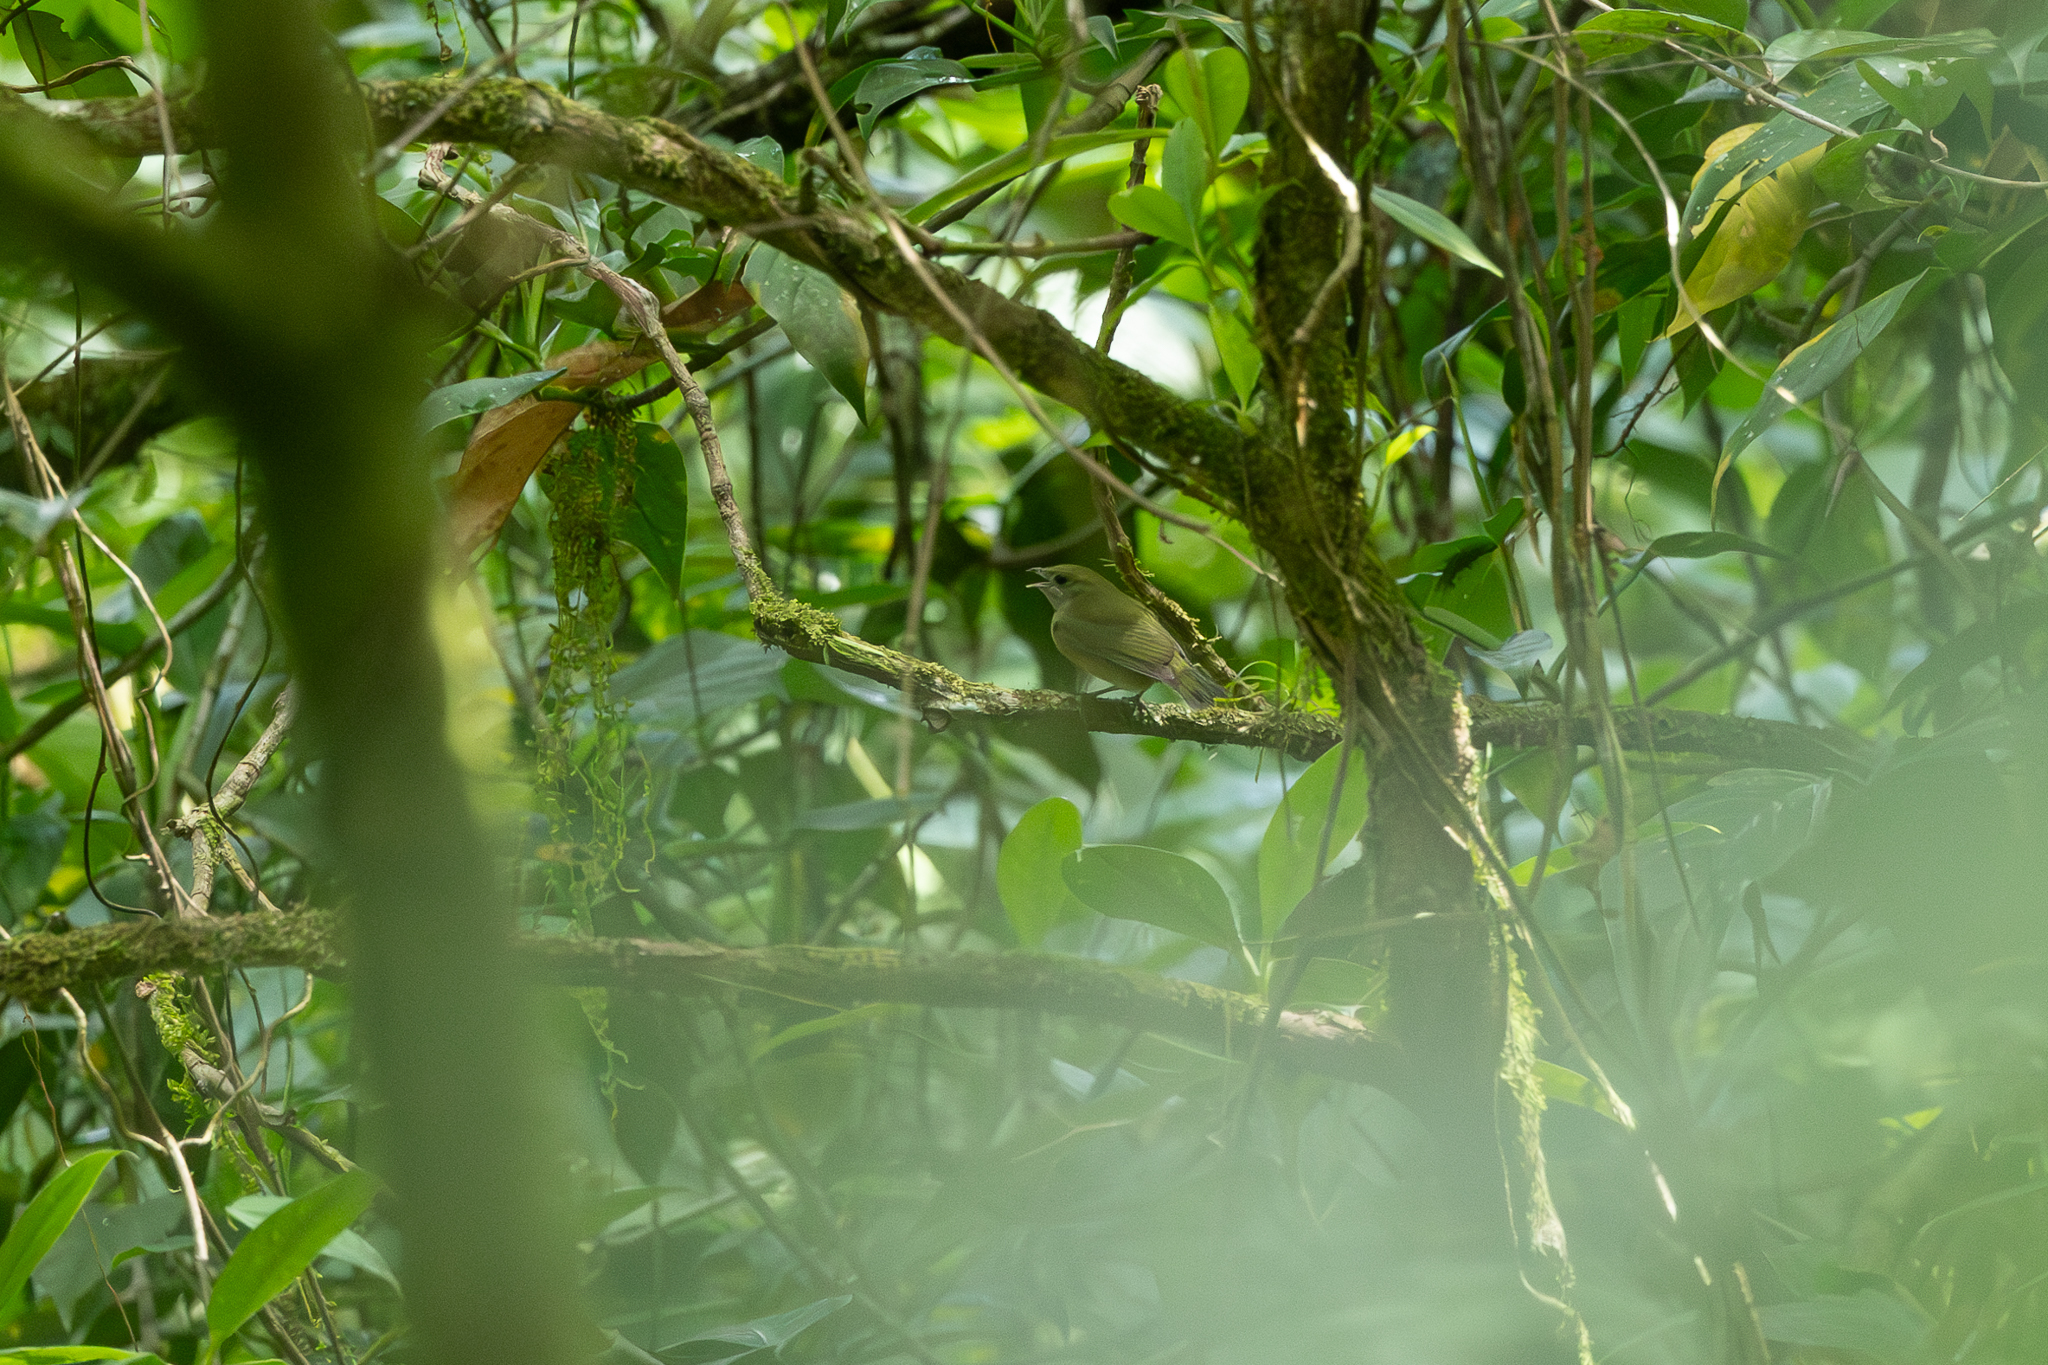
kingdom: Animalia
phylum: Chordata
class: Aves
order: Passeriformes
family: Pipridae
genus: Corapipo
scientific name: Corapipo altera
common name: White-ruffed manakin
